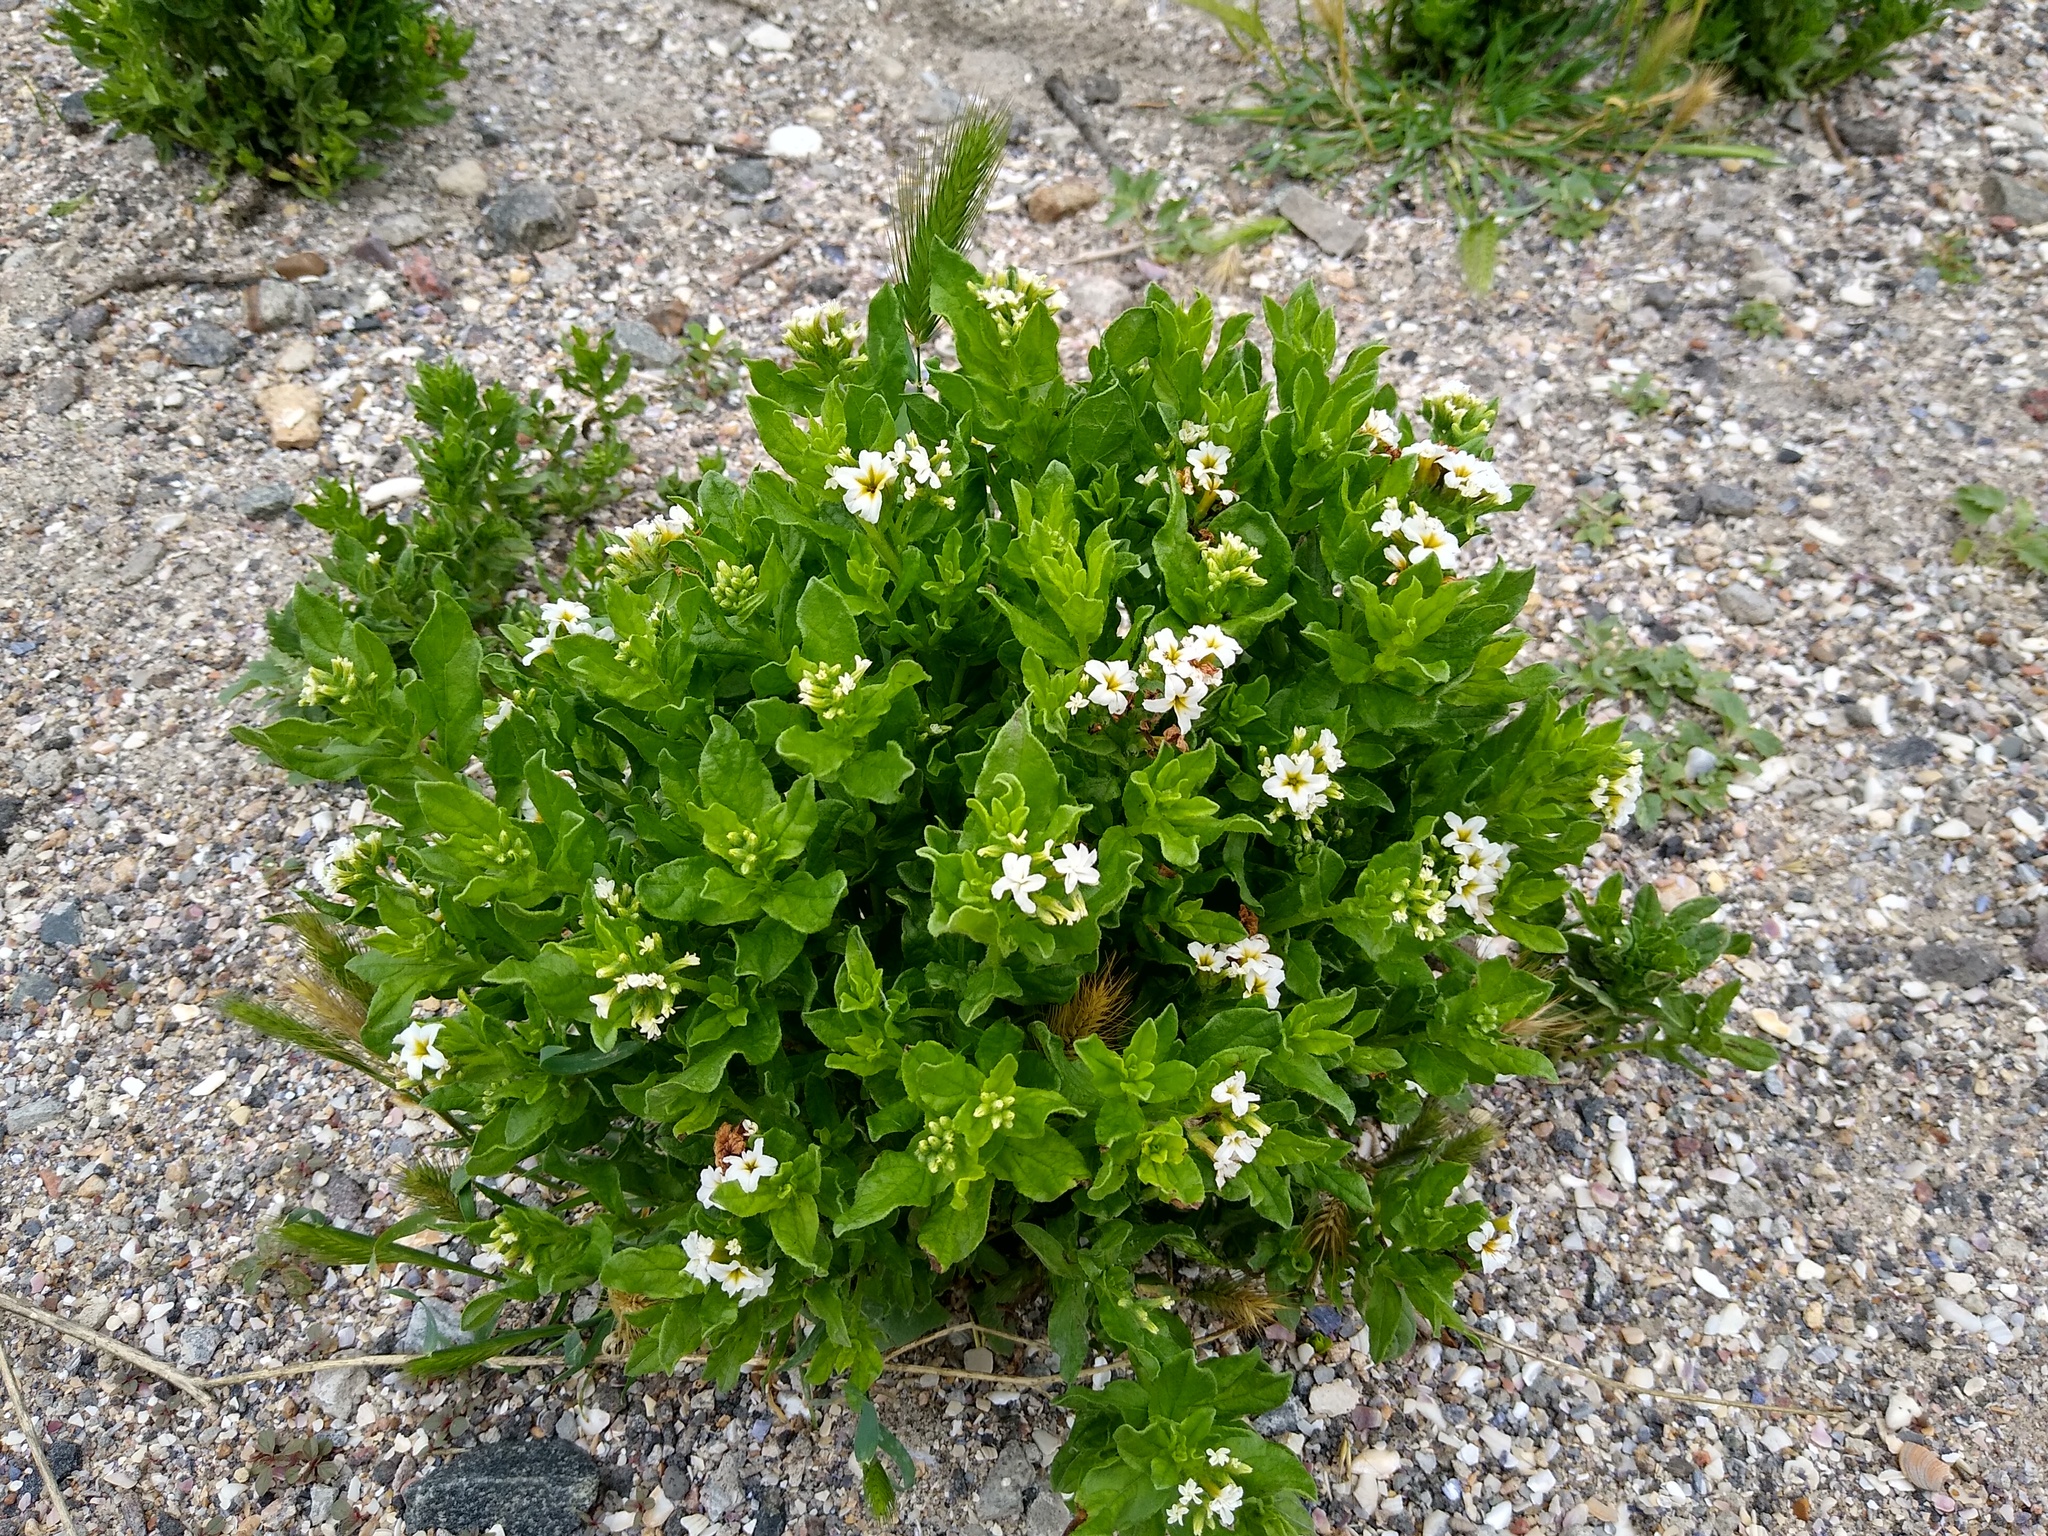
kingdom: Plantae
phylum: Tracheophyta
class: Magnoliopsida
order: Boraginales
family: Heliotropiaceae
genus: Tournefortia
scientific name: Tournefortia sibirica
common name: Siberian sea rosemary
